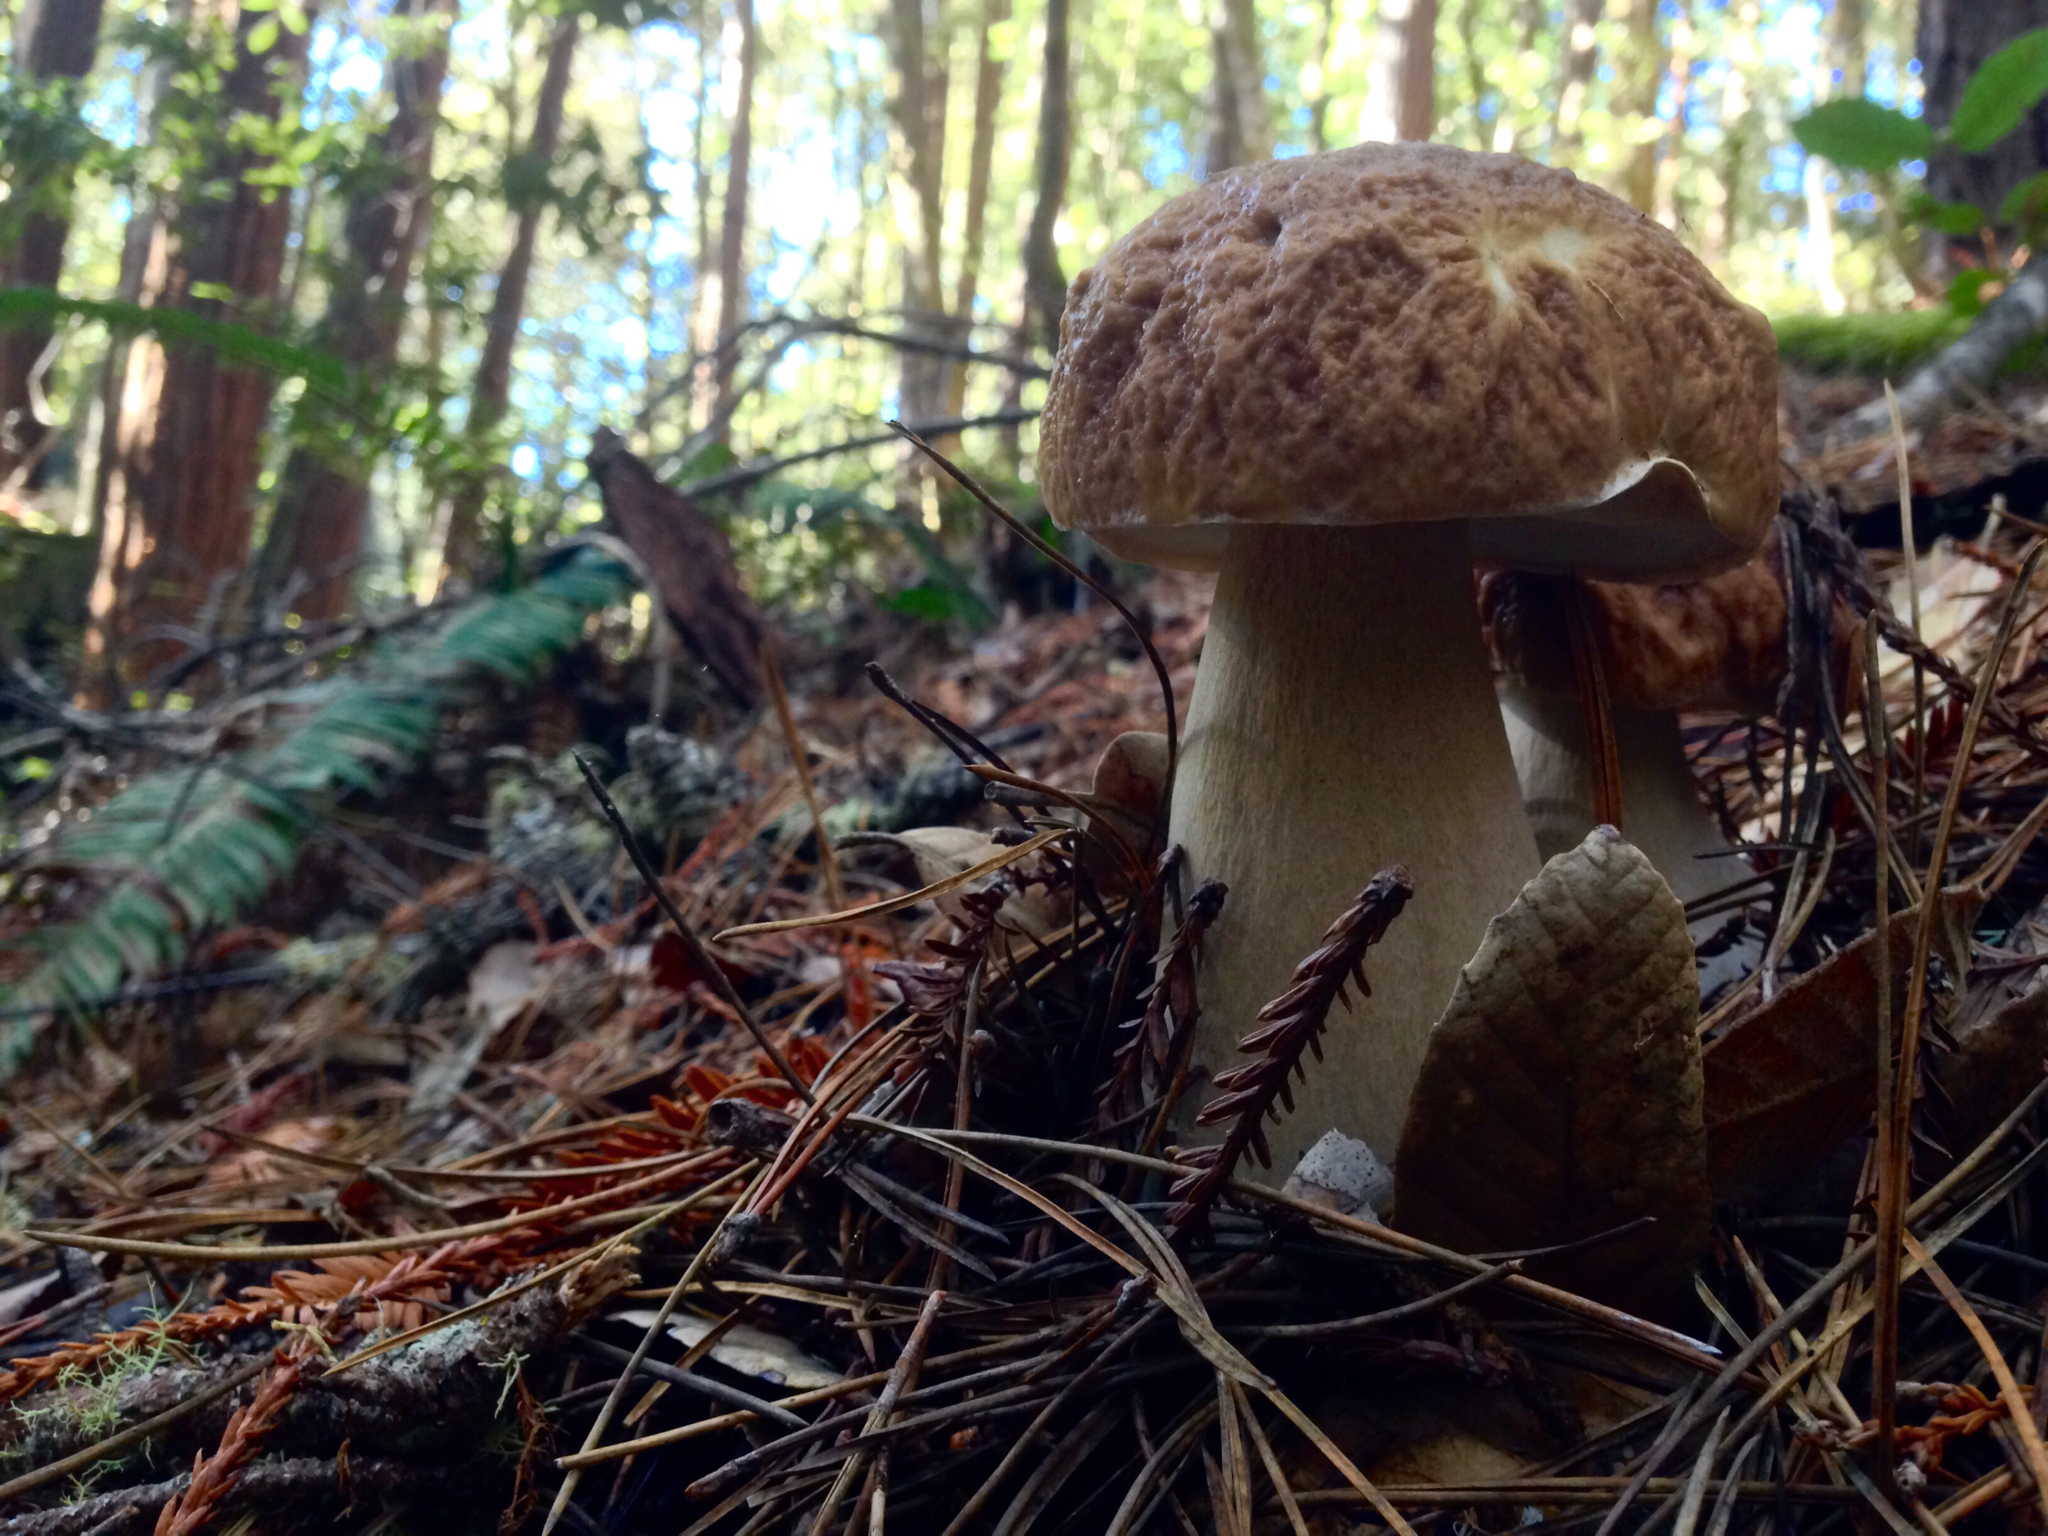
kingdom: Fungi
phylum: Basidiomycota
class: Agaricomycetes
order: Boletales
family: Boletaceae
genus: Boletus
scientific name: Boletus edulis
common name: Cep
